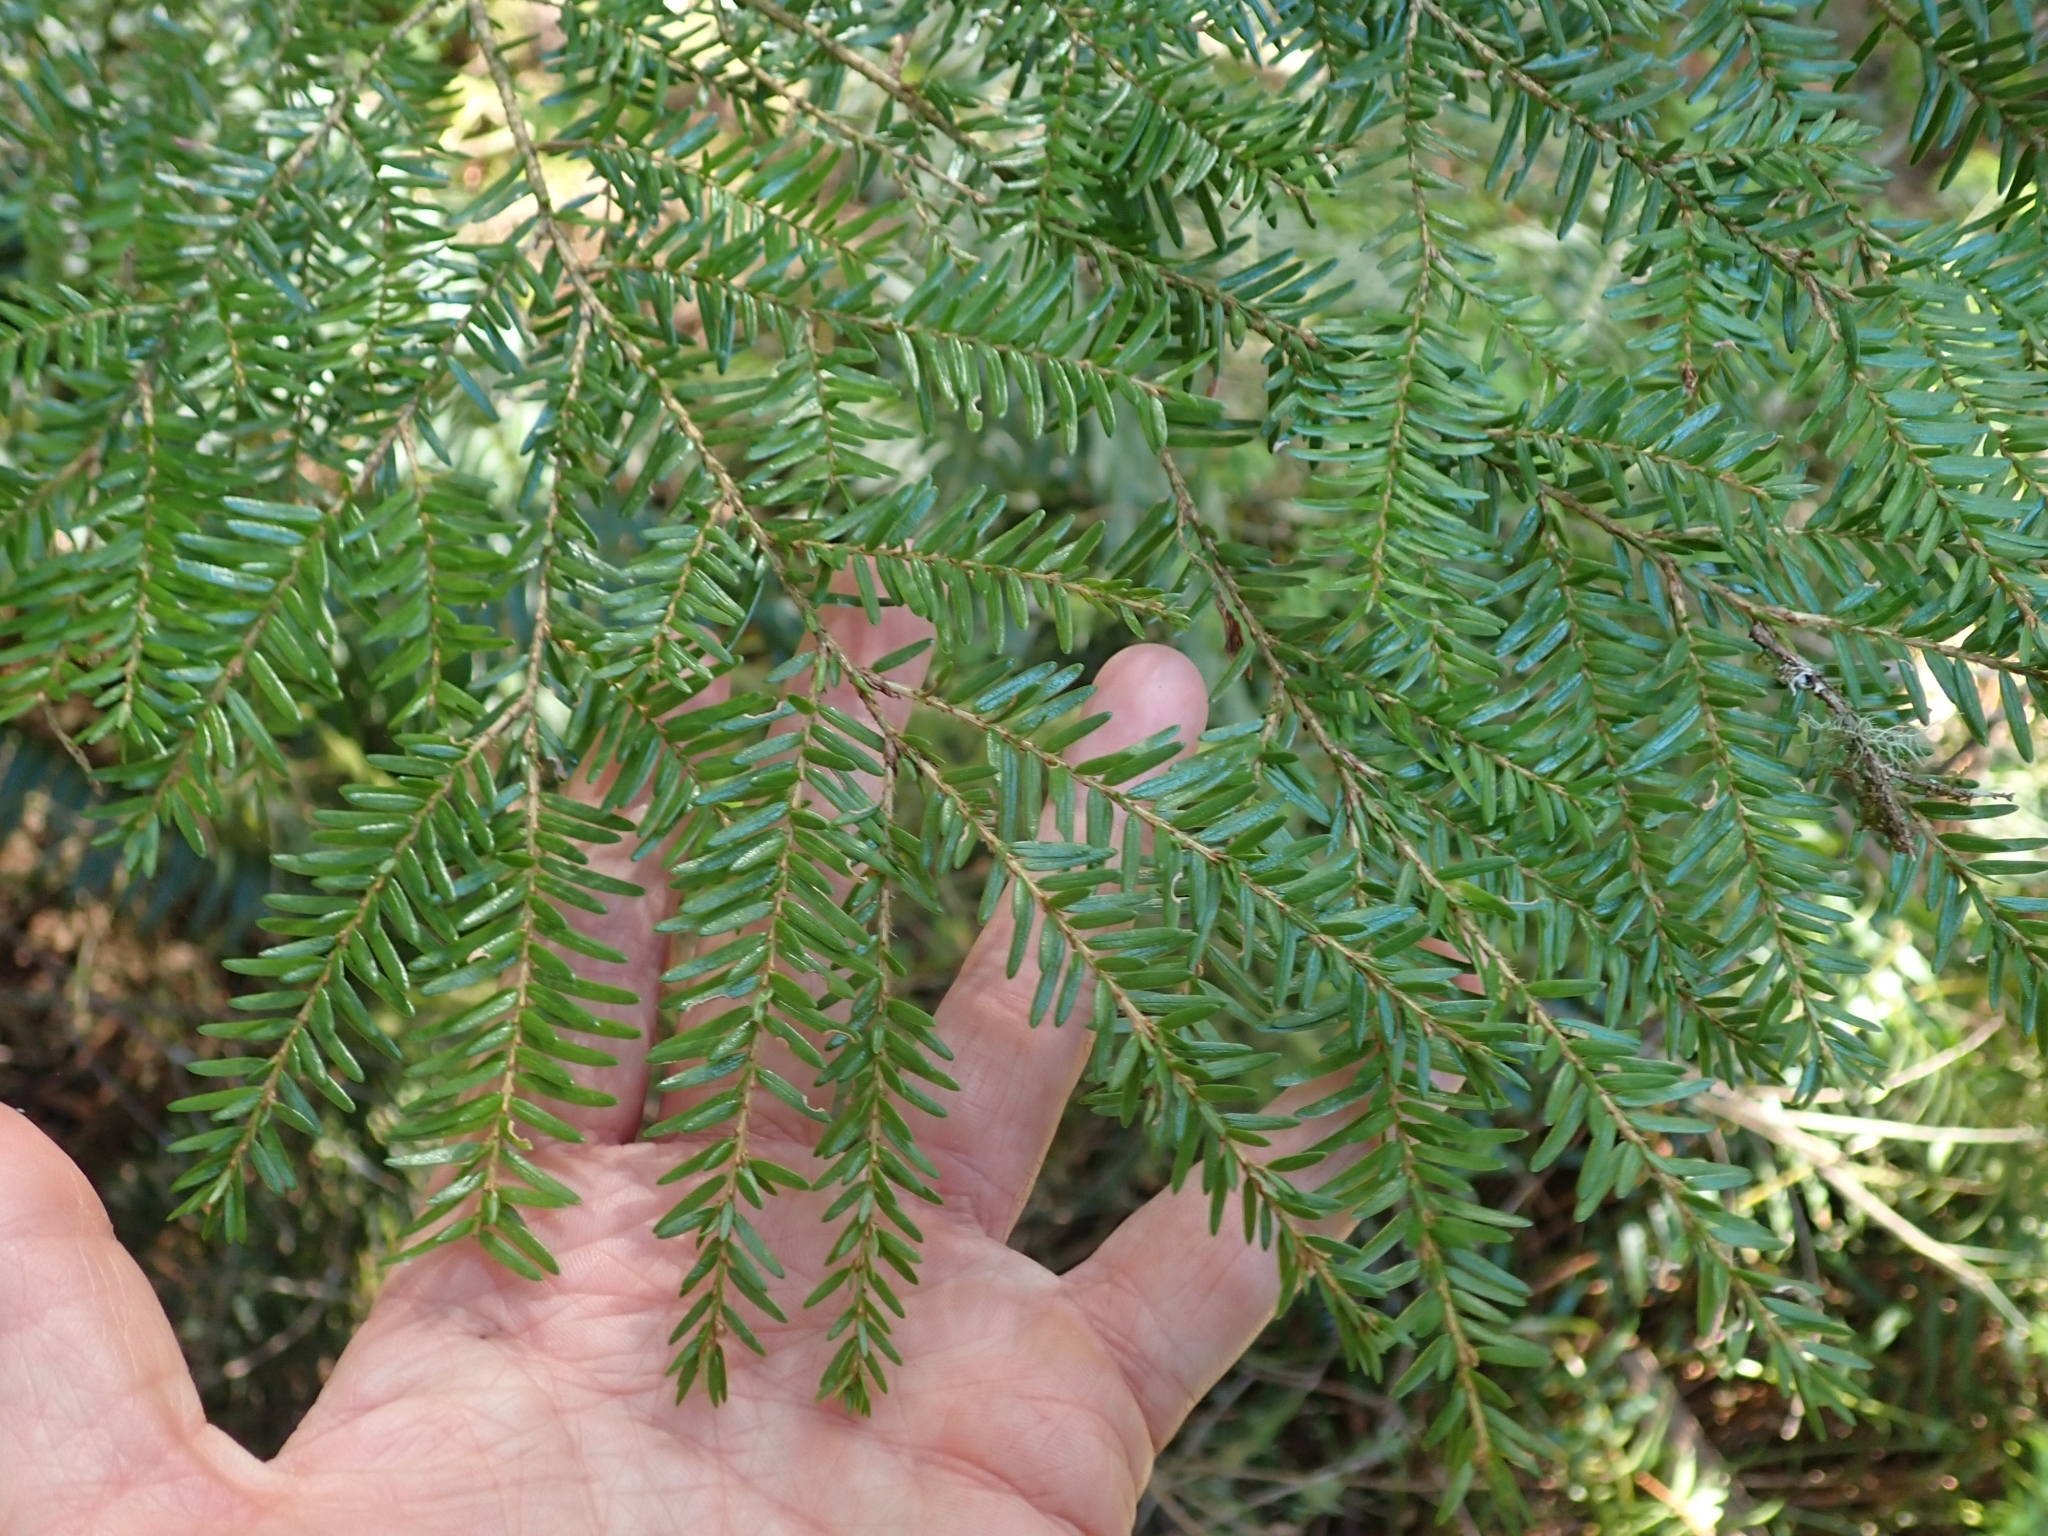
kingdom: Plantae
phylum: Tracheophyta
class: Pinopsida
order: Pinales
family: Pinaceae
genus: Tsuga
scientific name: Tsuga heterophylla
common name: Western hemlock
